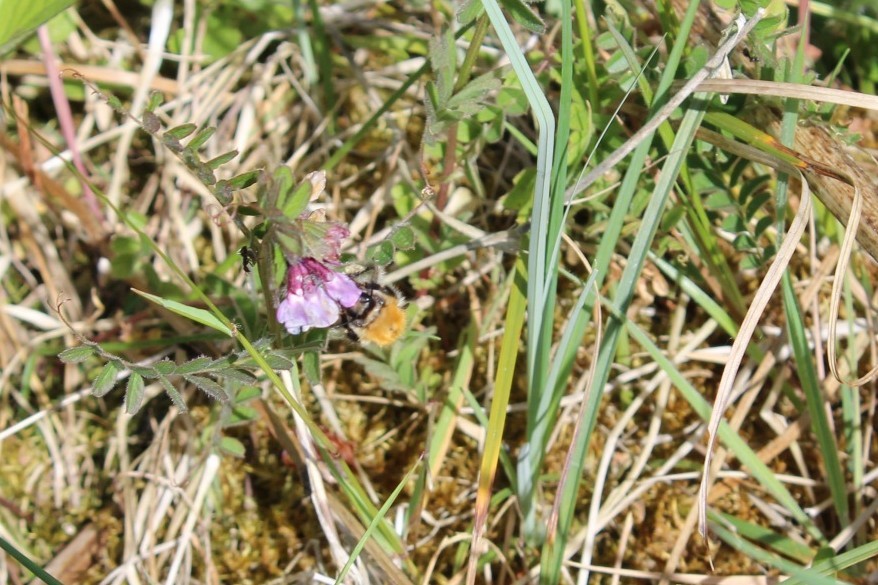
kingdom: Animalia
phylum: Arthropoda
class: Insecta
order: Hymenoptera
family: Apidae
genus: Bombus
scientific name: Bombus pascuorum
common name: Common carder bee
